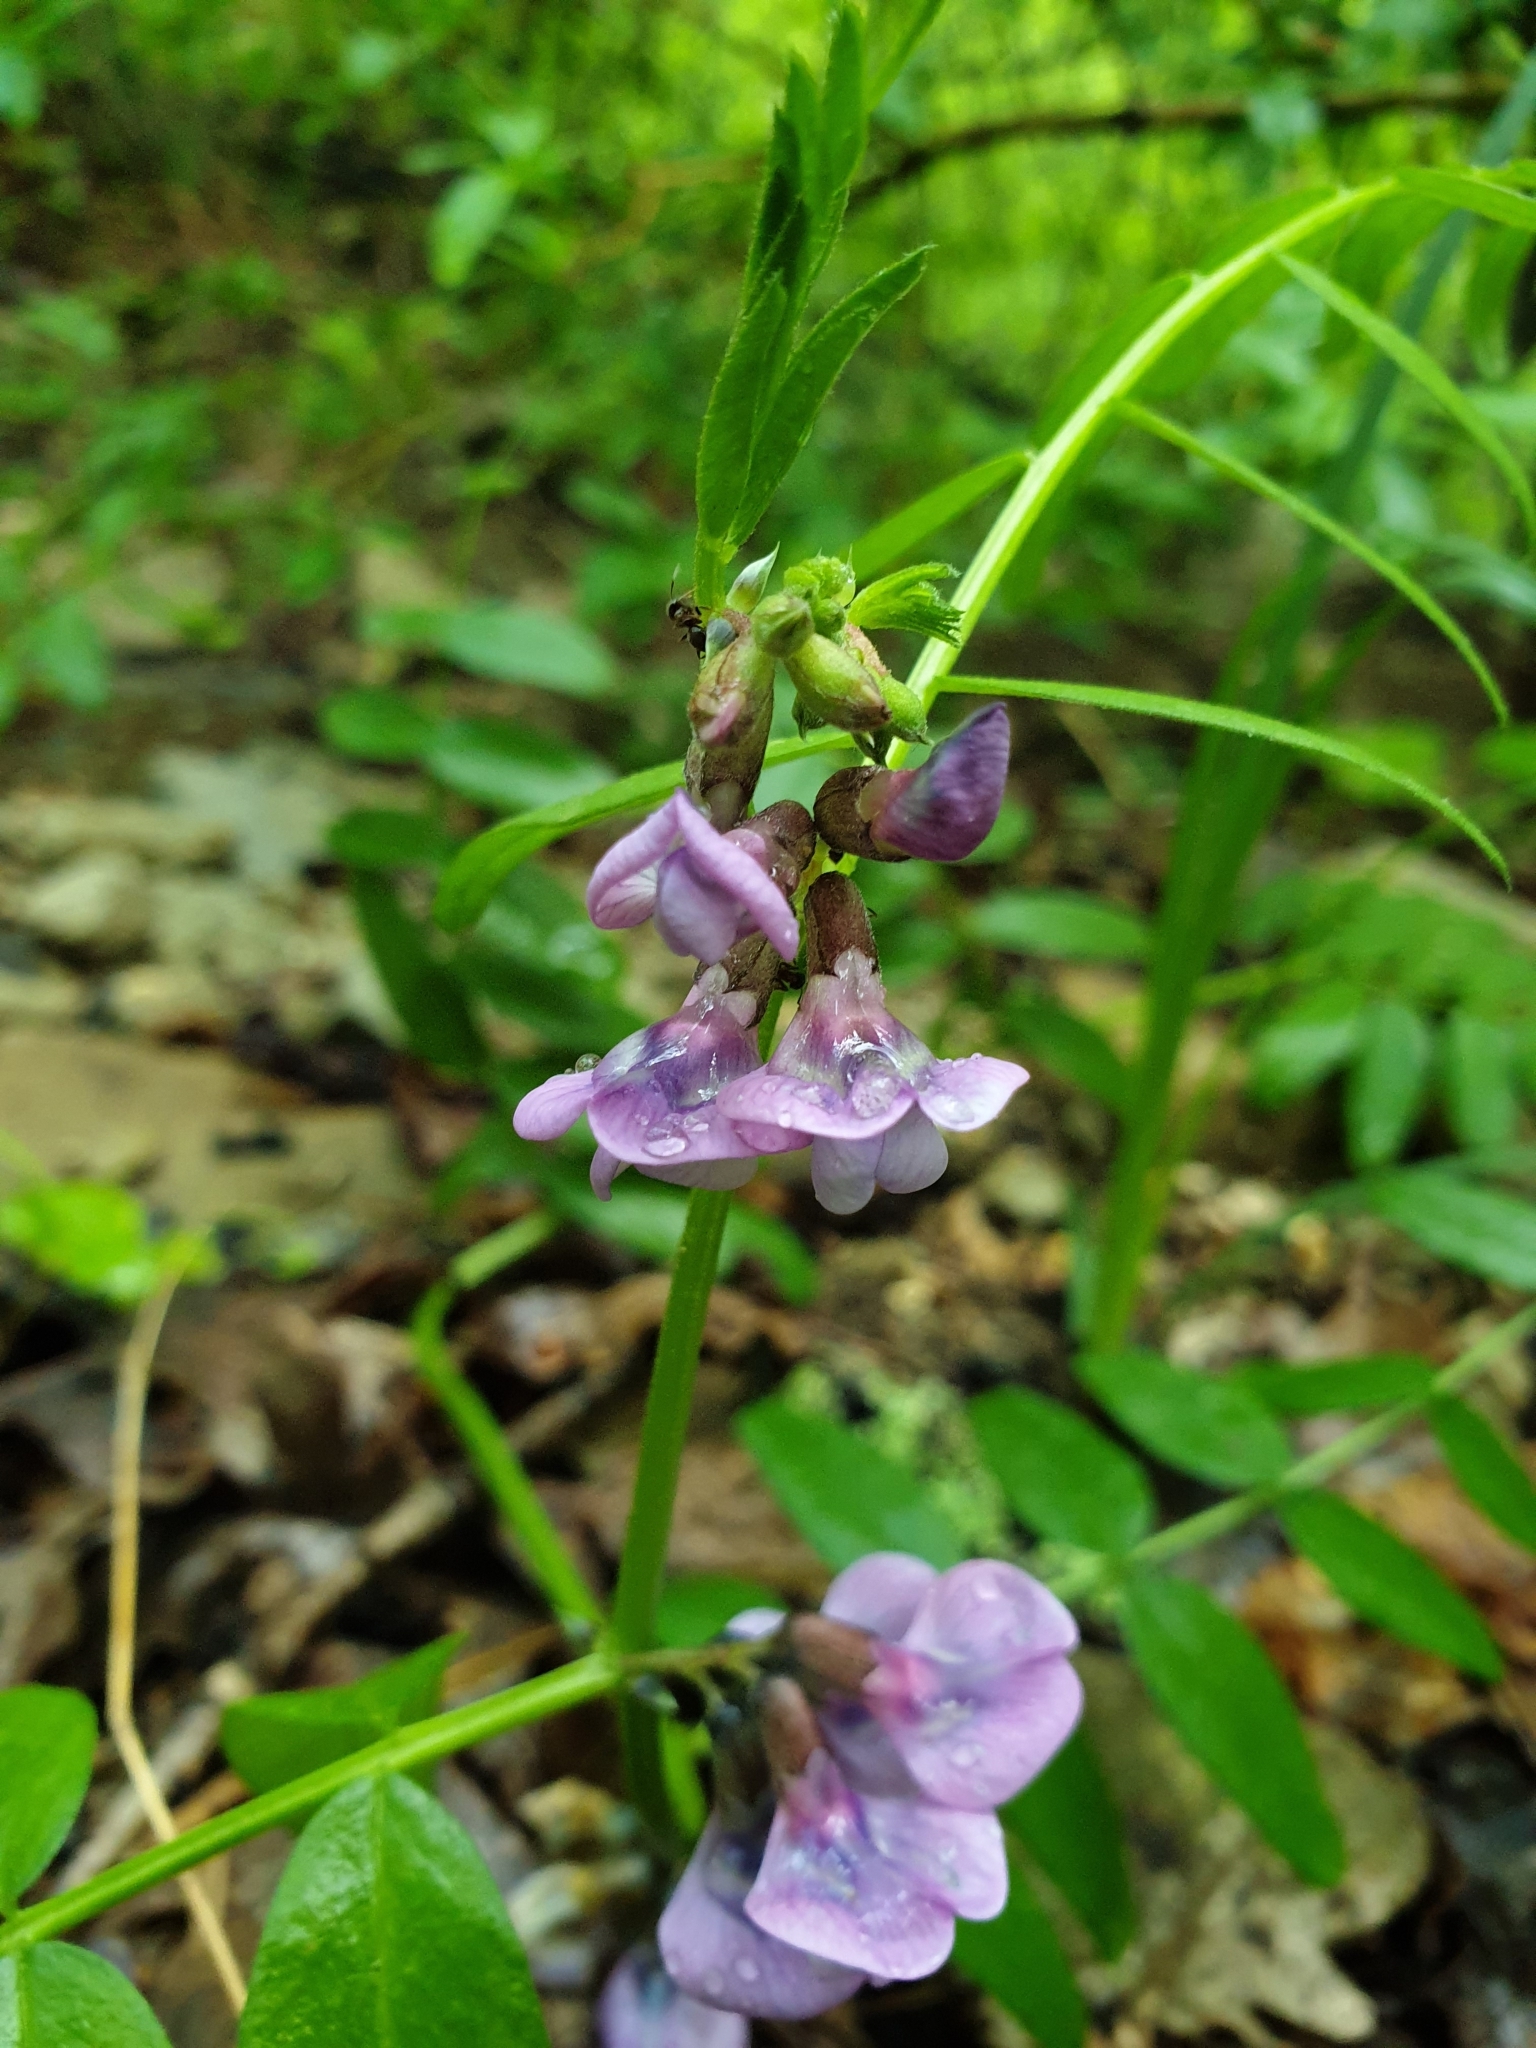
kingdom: Plantae
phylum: Tracheophyta
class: Magnoliopsida
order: Fabales
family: Fabaceae
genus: Vicia
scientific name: Vicia sepium
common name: Bush vetch
